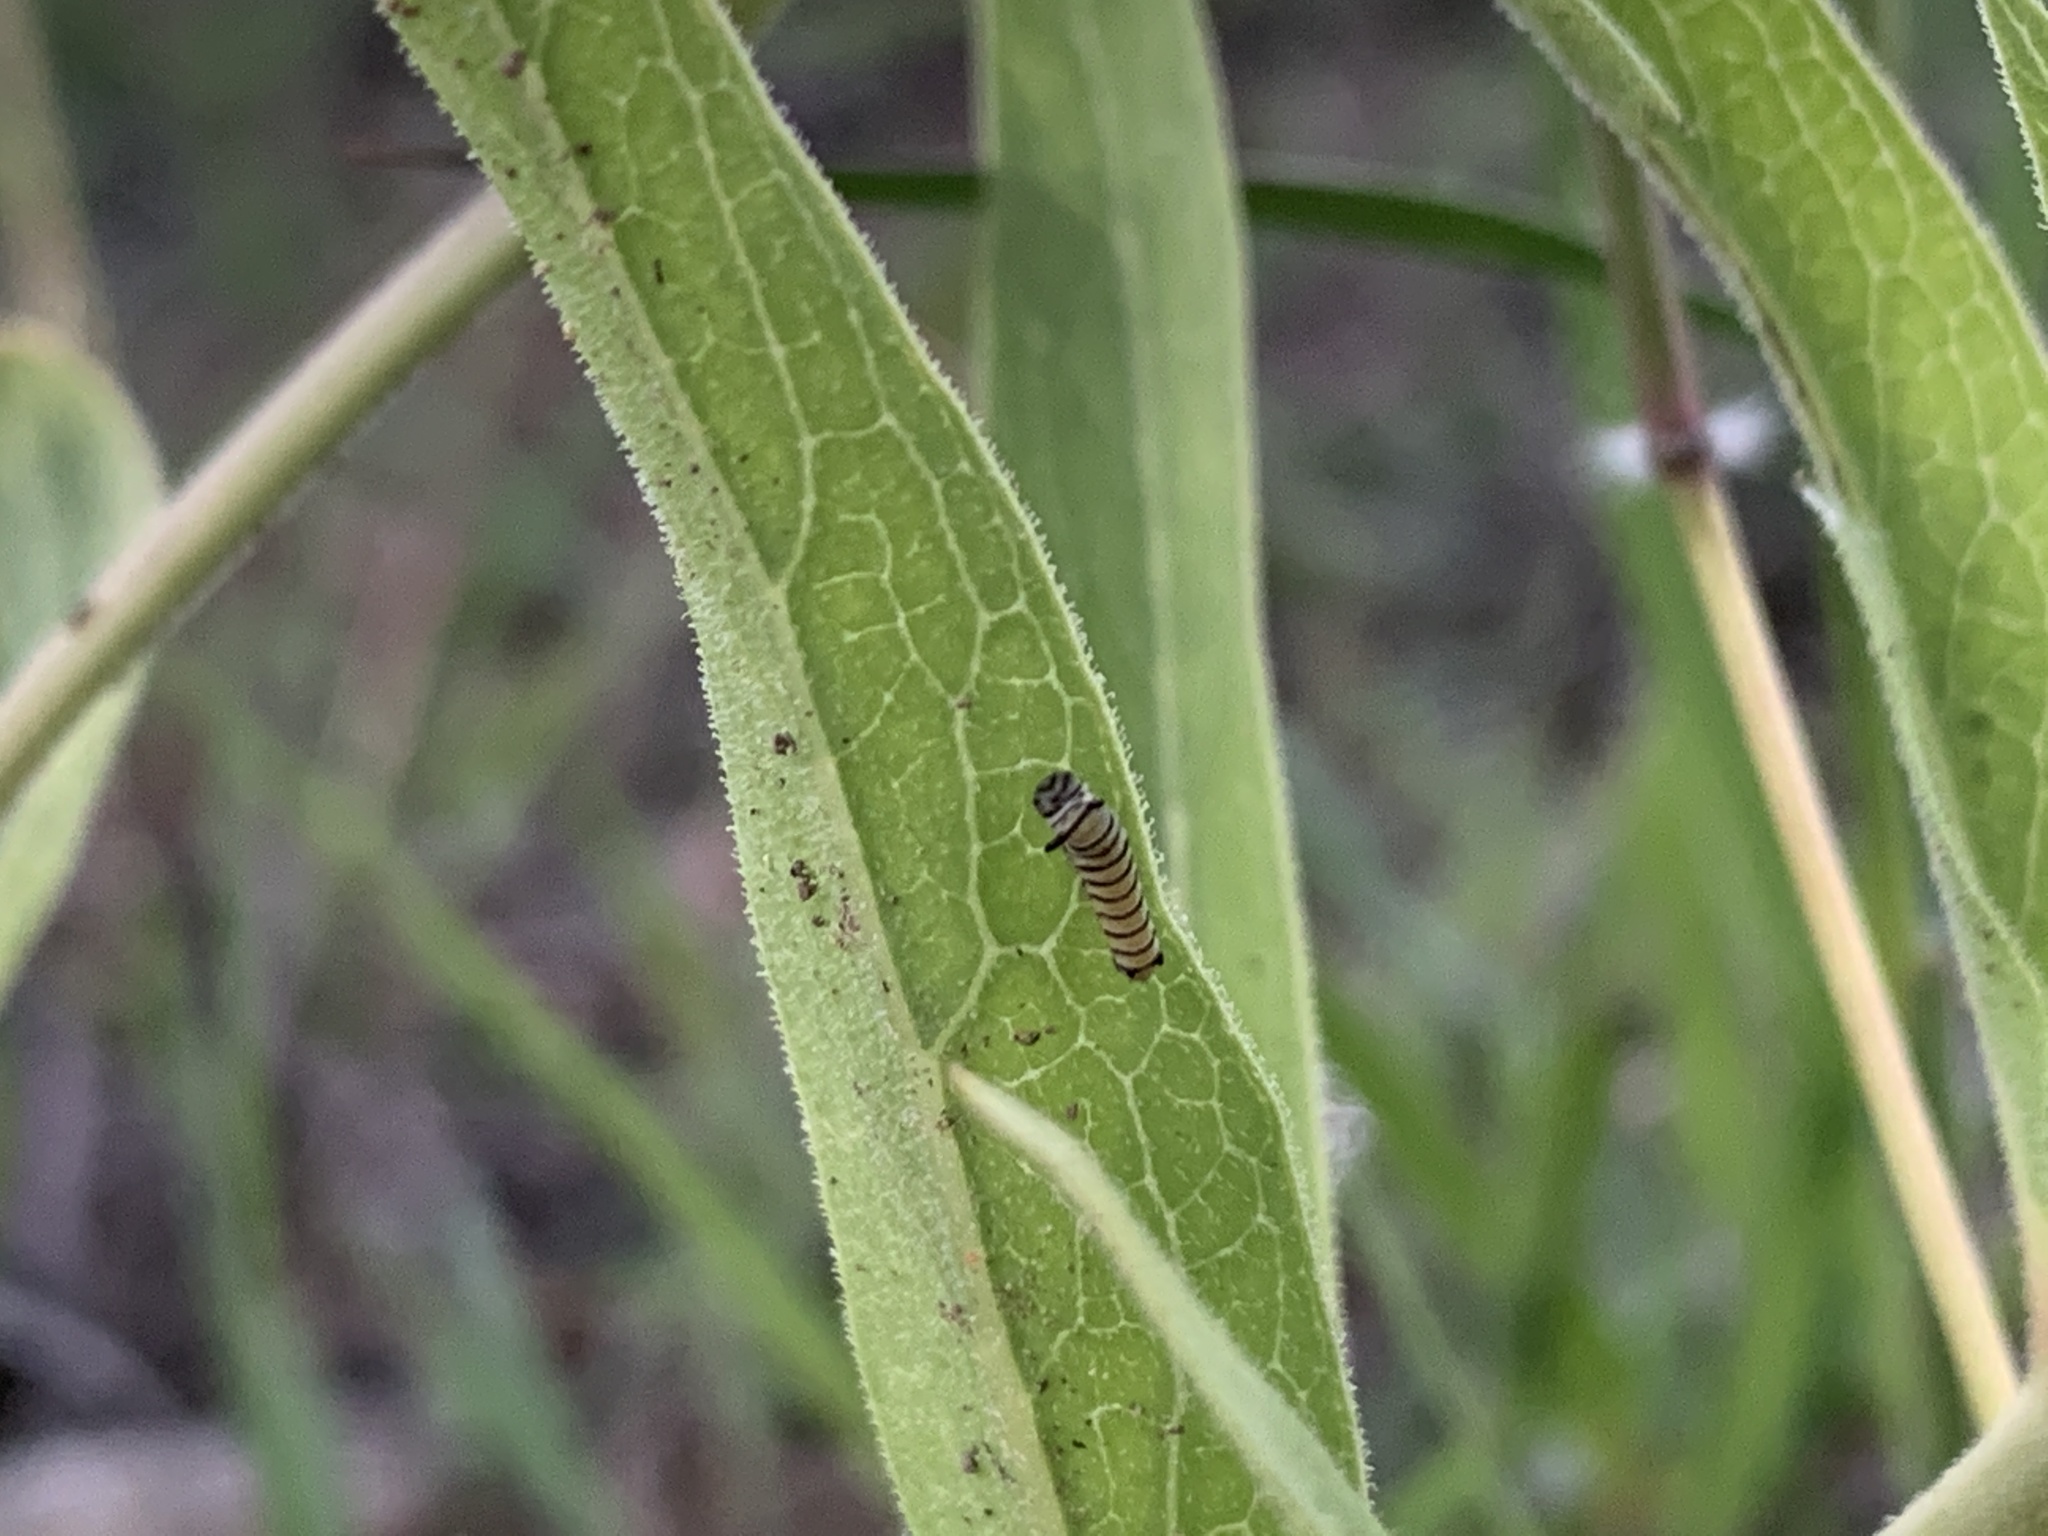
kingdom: Animalia
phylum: Arthropoda
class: Insecta
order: Lepidoptera
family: Nymphalidae
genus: Danaus
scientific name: Danaus plexippus
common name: Monarch
